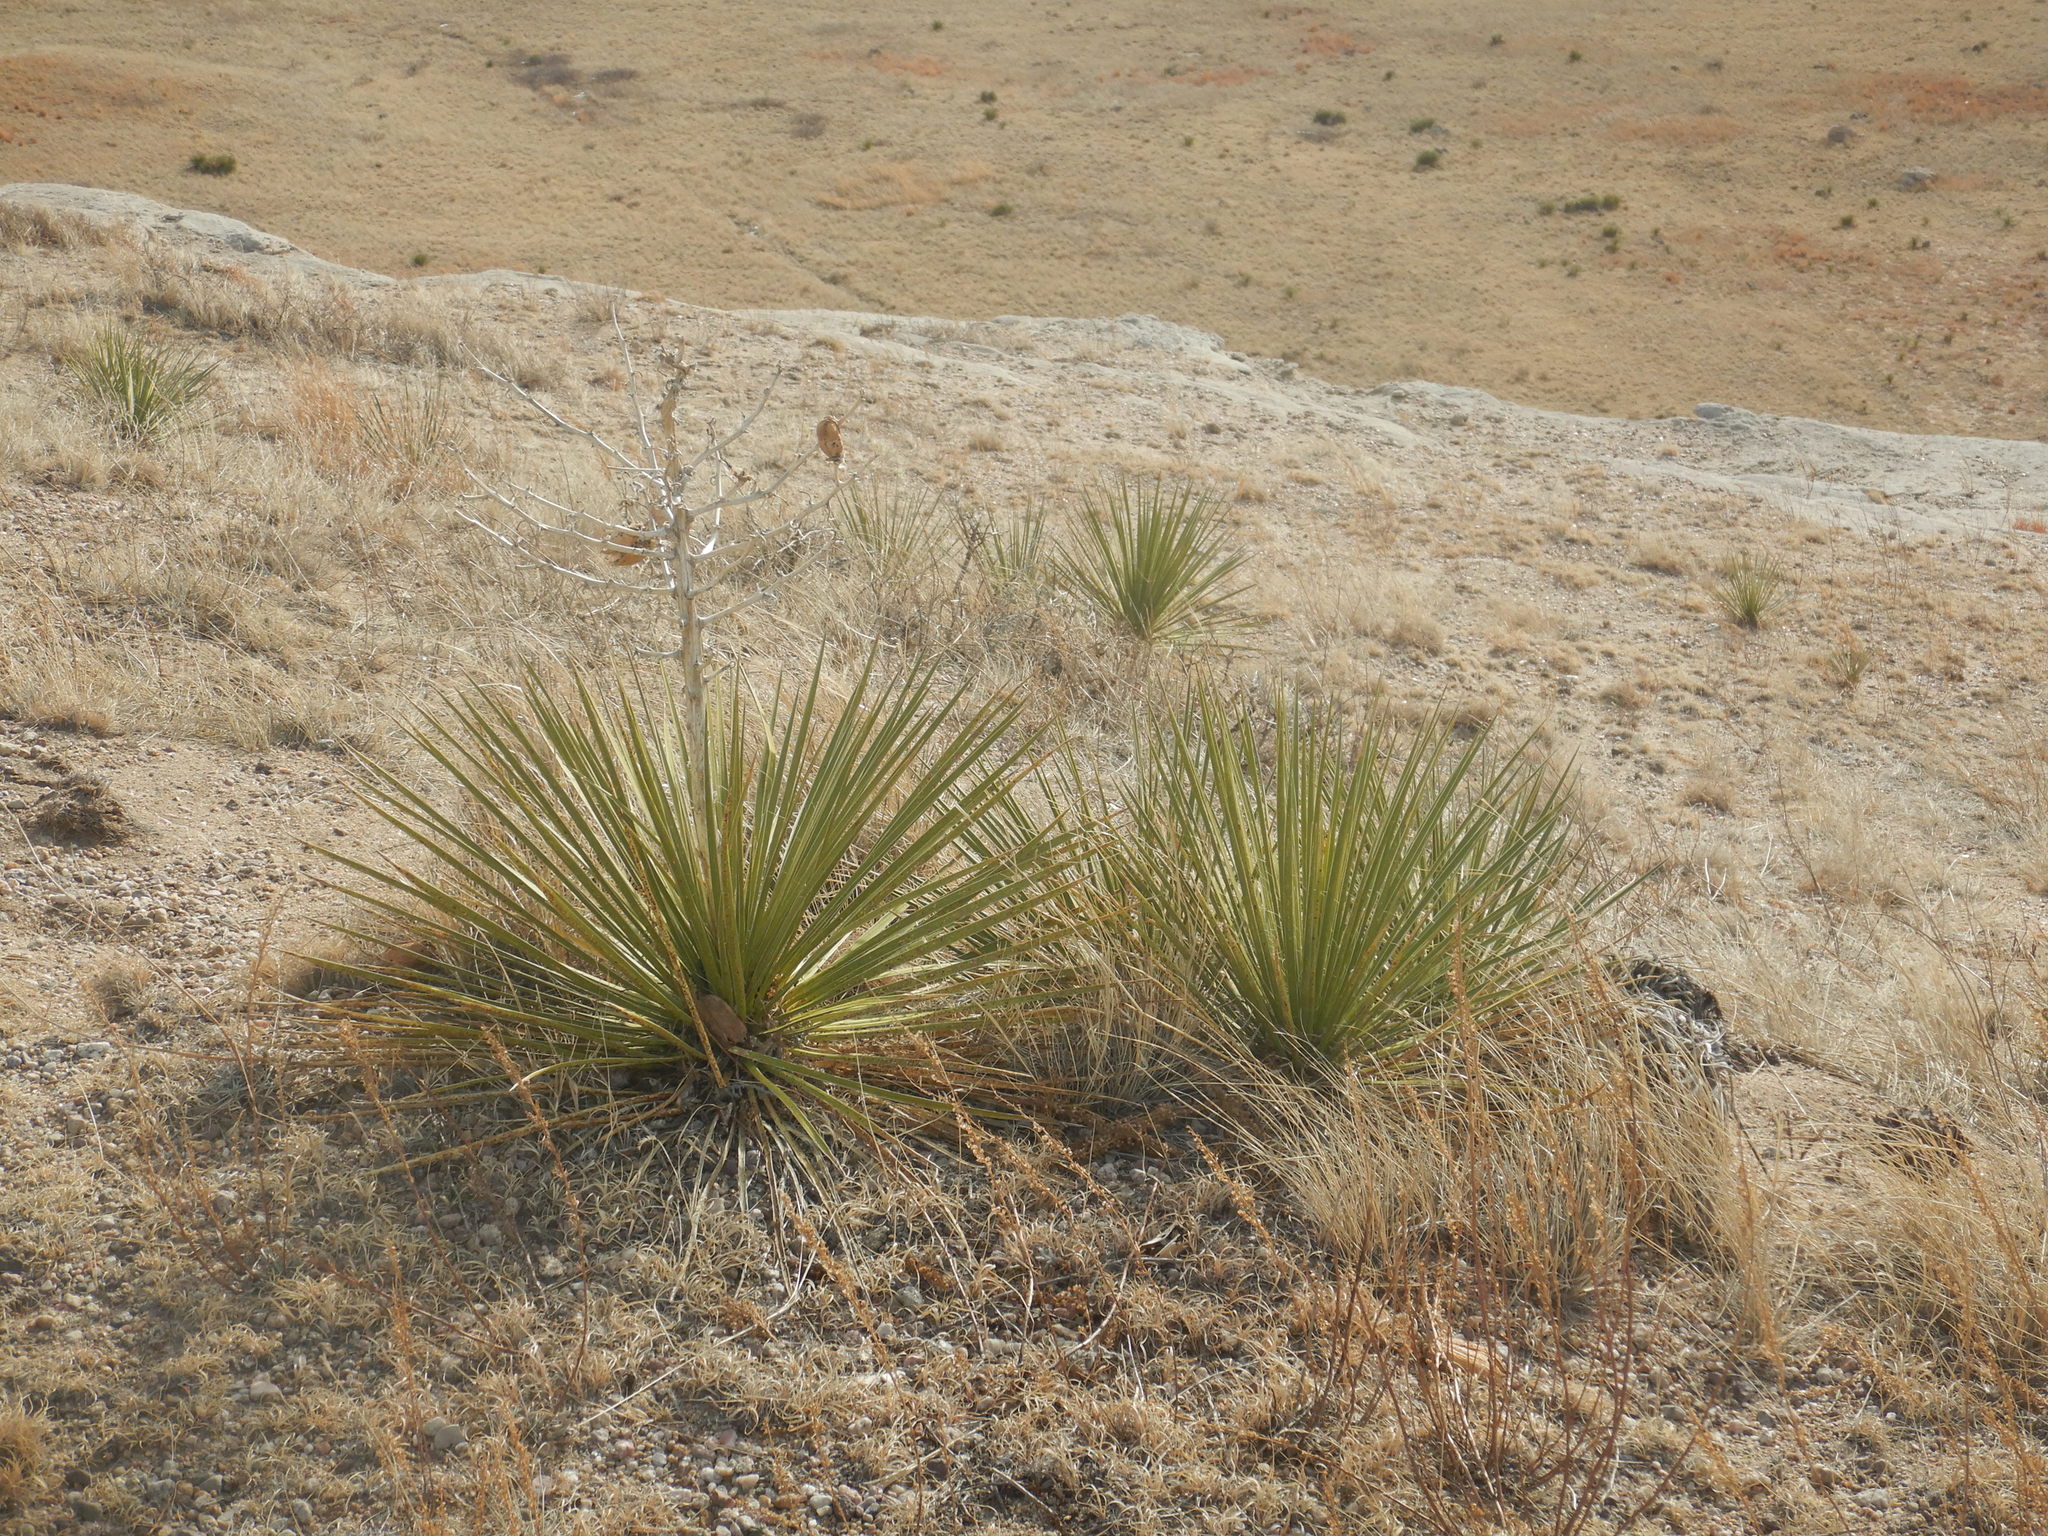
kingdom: Plantae
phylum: Tracheophyta
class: Liliopsida
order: Asparagales
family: Asparagaceae
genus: Yucca
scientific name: Yucca glauca
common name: Great plains yucca
